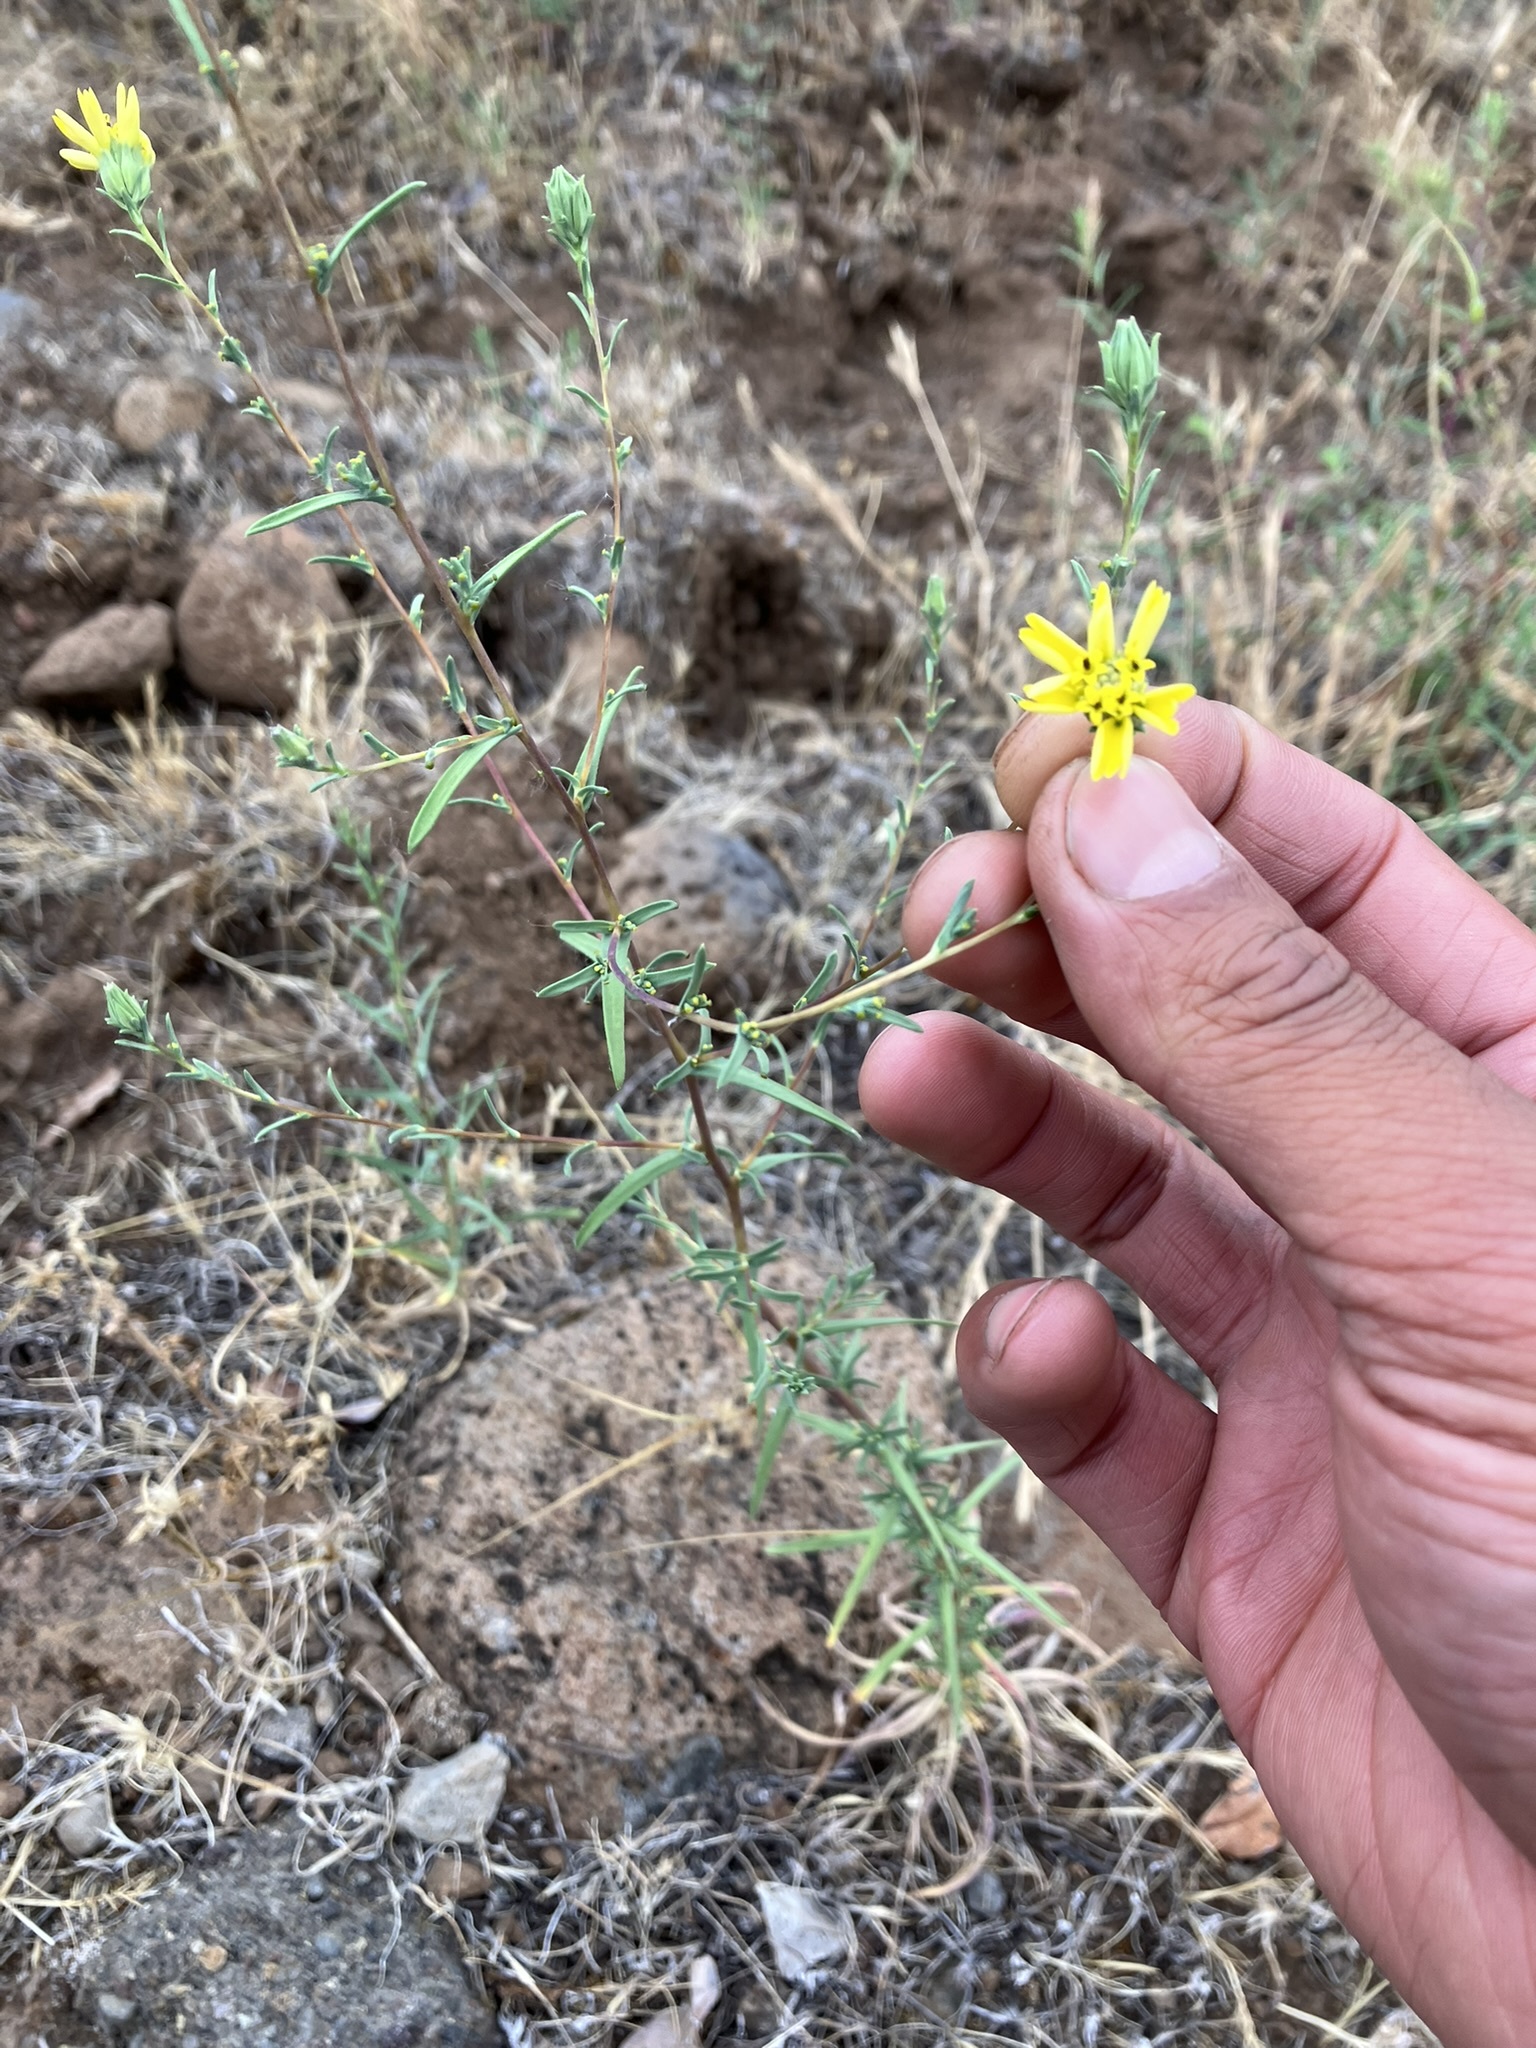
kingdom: Plantae
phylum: Tracheophyta
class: Magnoliopsida
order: Asterales
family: Asteraceae
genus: Calycadenia
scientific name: Calycadenia truncata
